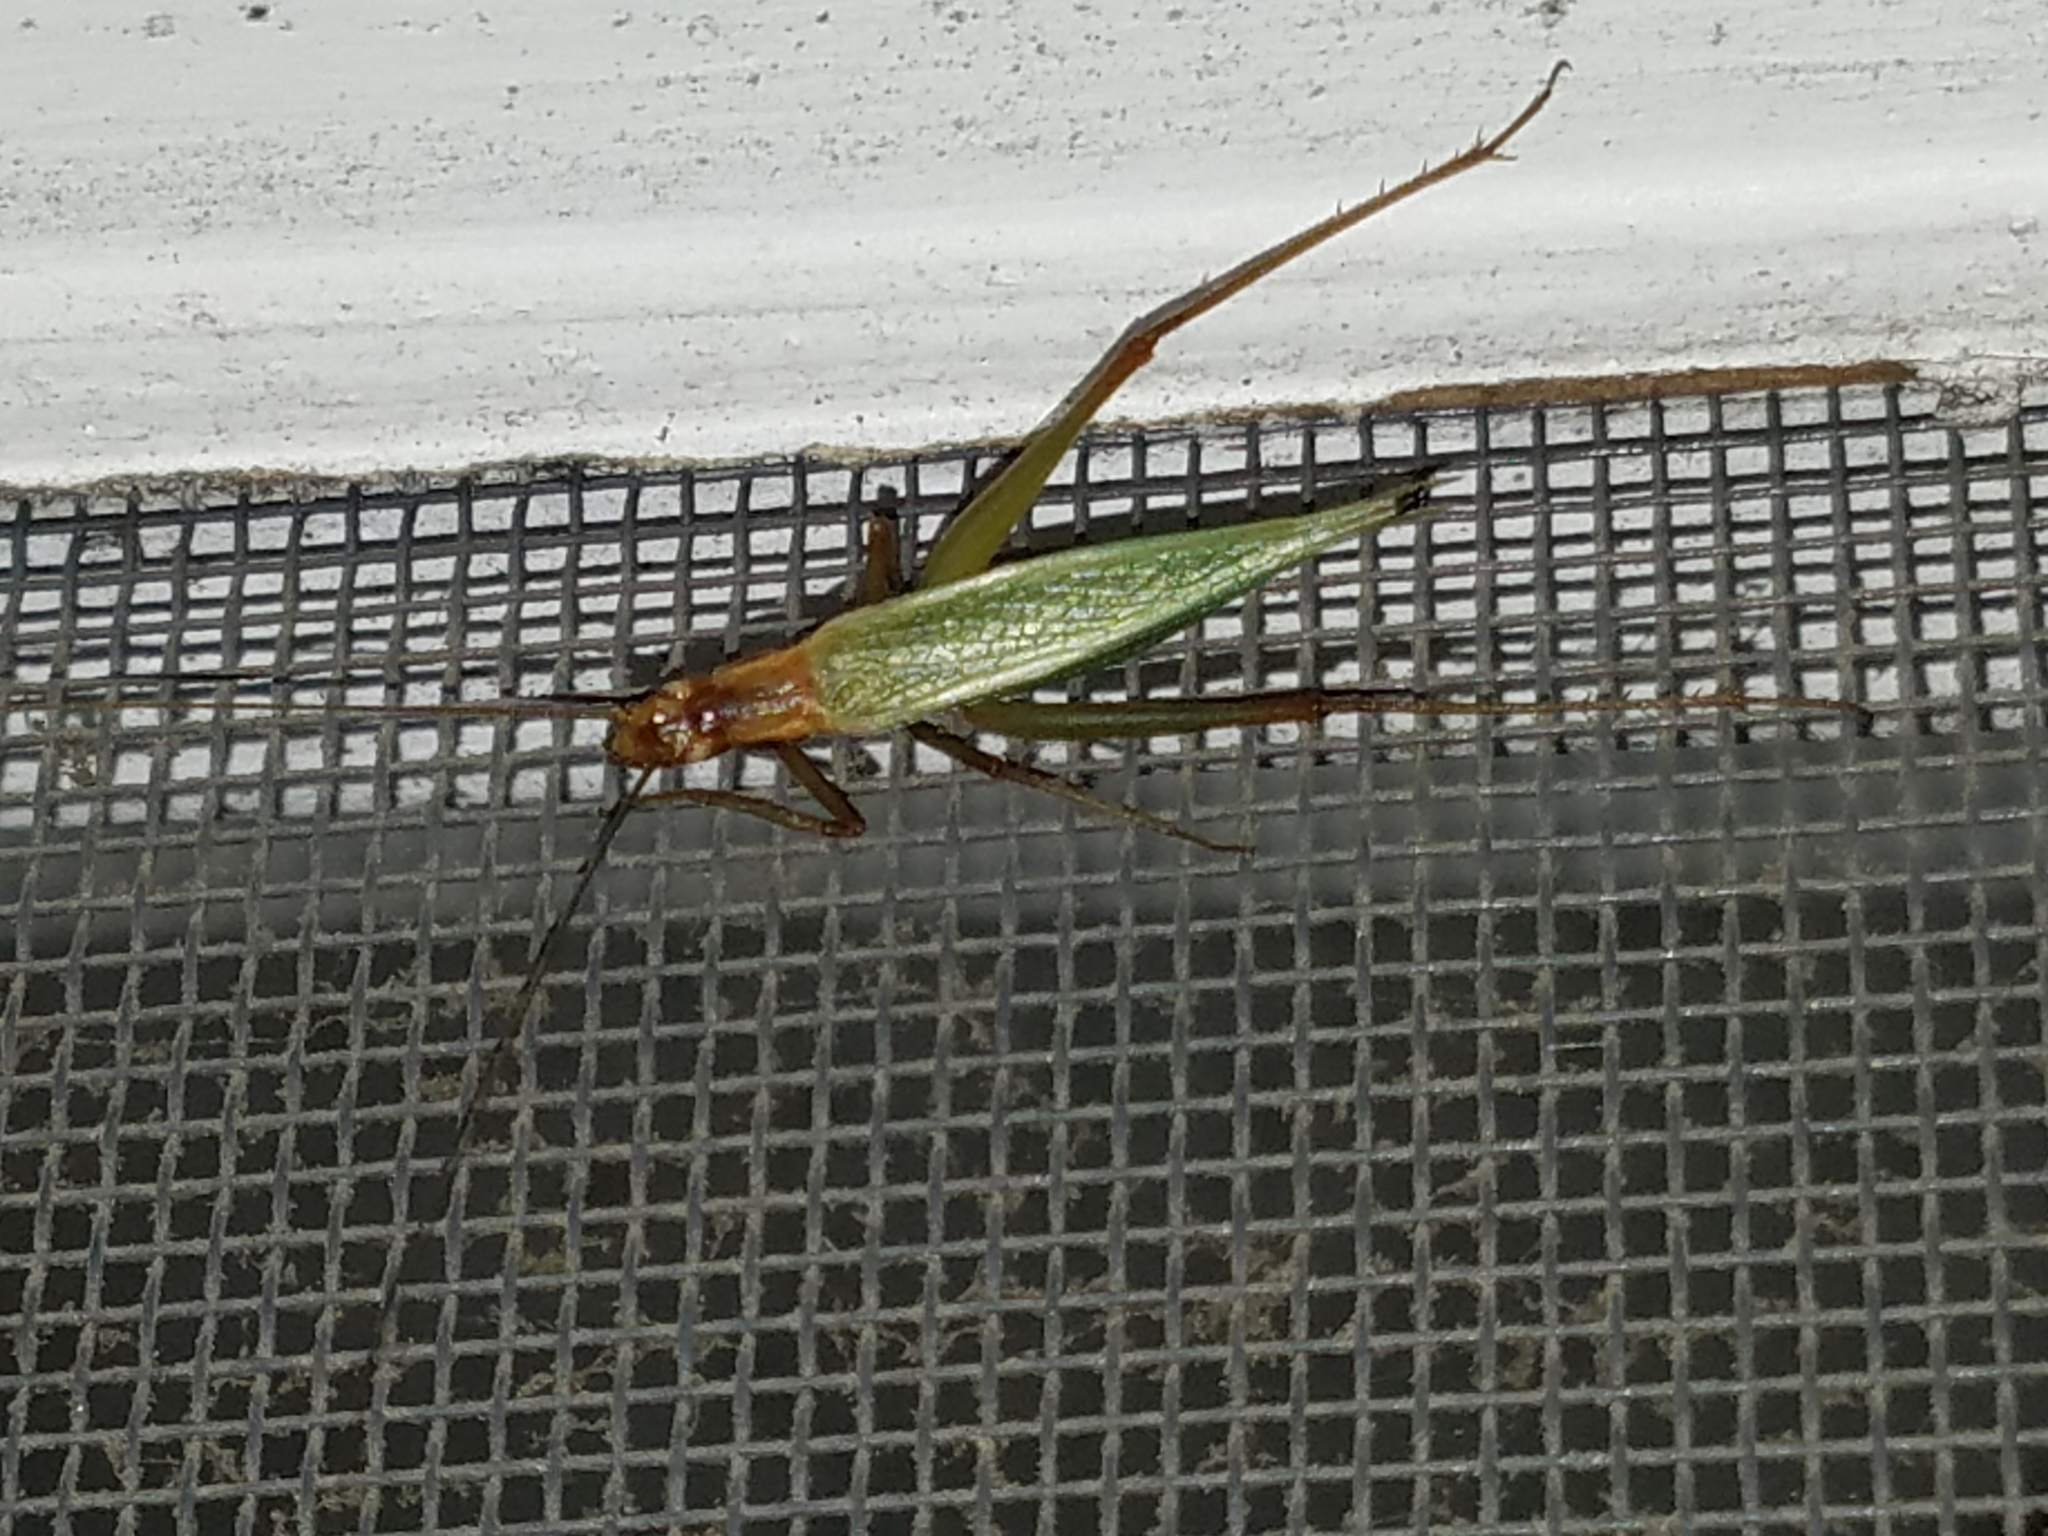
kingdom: Animalia
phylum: Arthropoda
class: Insecta
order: Orthoptera
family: Gryllidae
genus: Oecanthus
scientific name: Oecanthus pini
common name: Pine tree cricket
